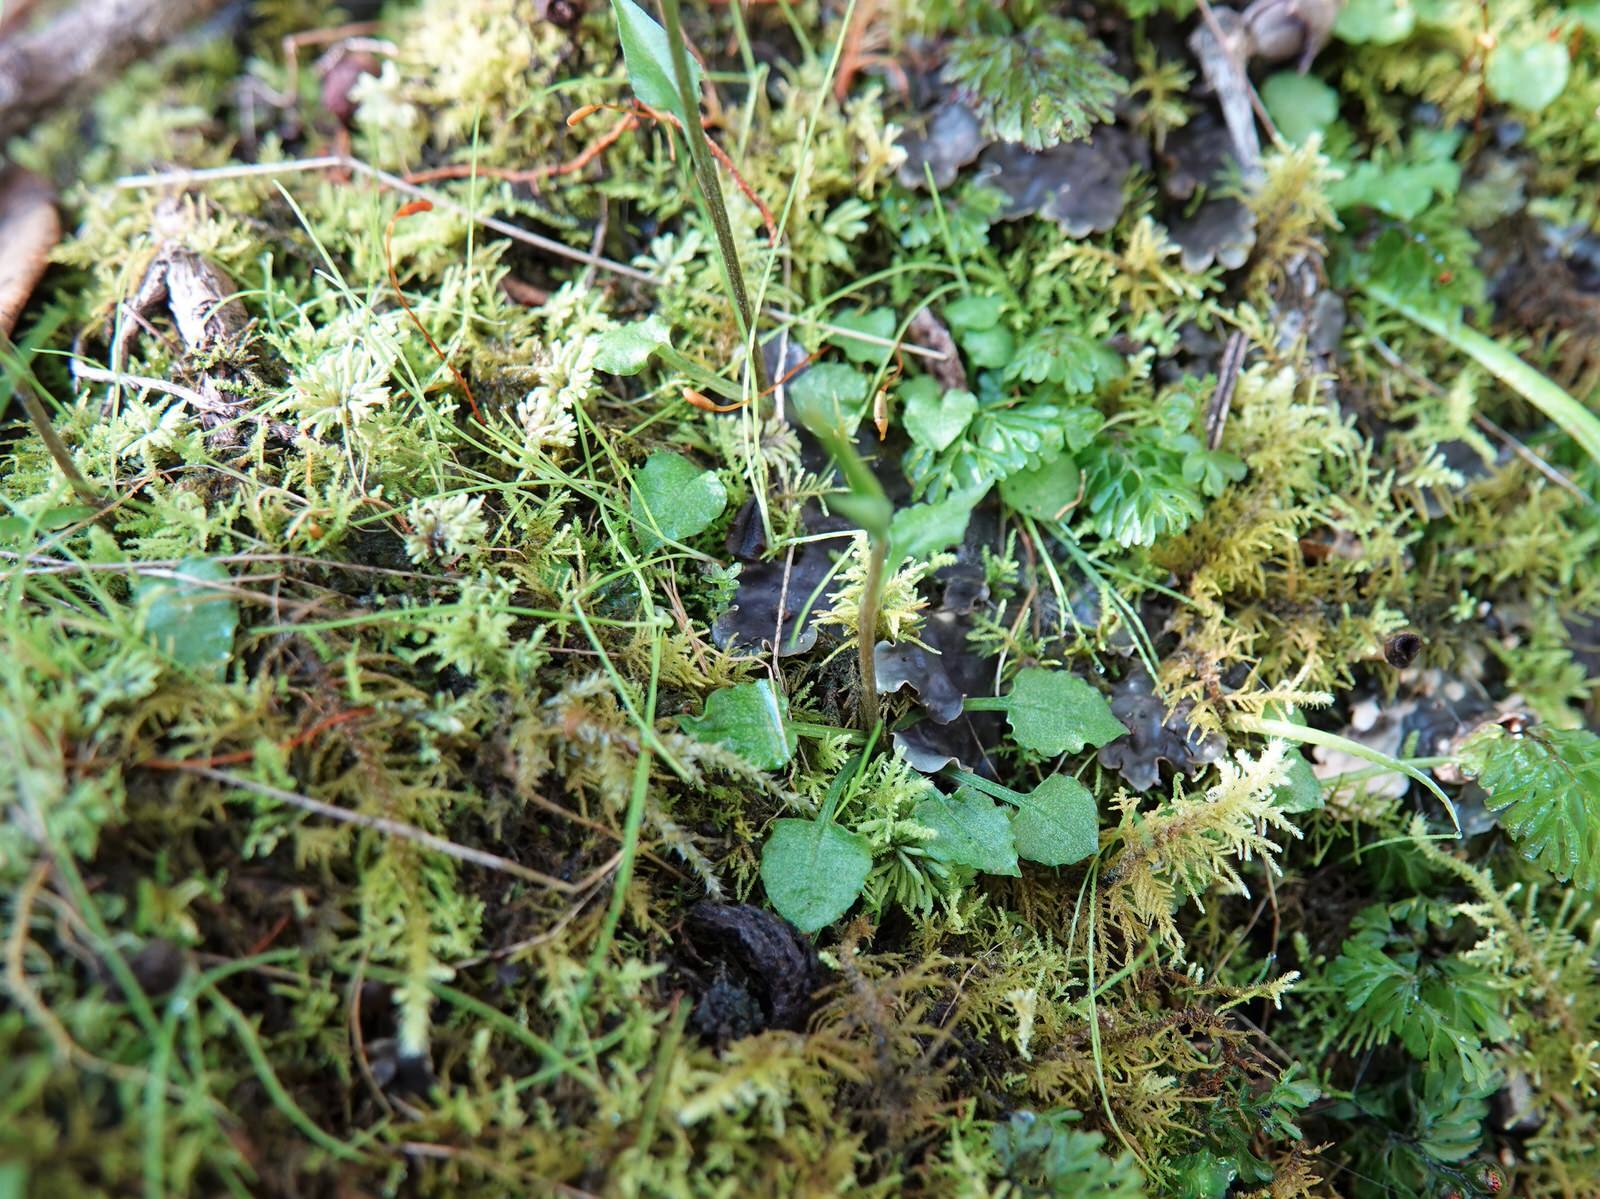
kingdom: Plantae
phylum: Tracheophyta
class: Liliopsida
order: Asparagales
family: Orchidaceae
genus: Pterostylis
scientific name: Pterostylis alobula
